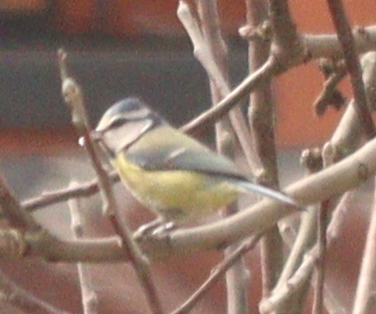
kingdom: Animalia
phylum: Chordata
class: Aves
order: Passeriformes
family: Paridae
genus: Cyanistes
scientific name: Cyanistes caeruleus
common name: Eurasian blue tit
